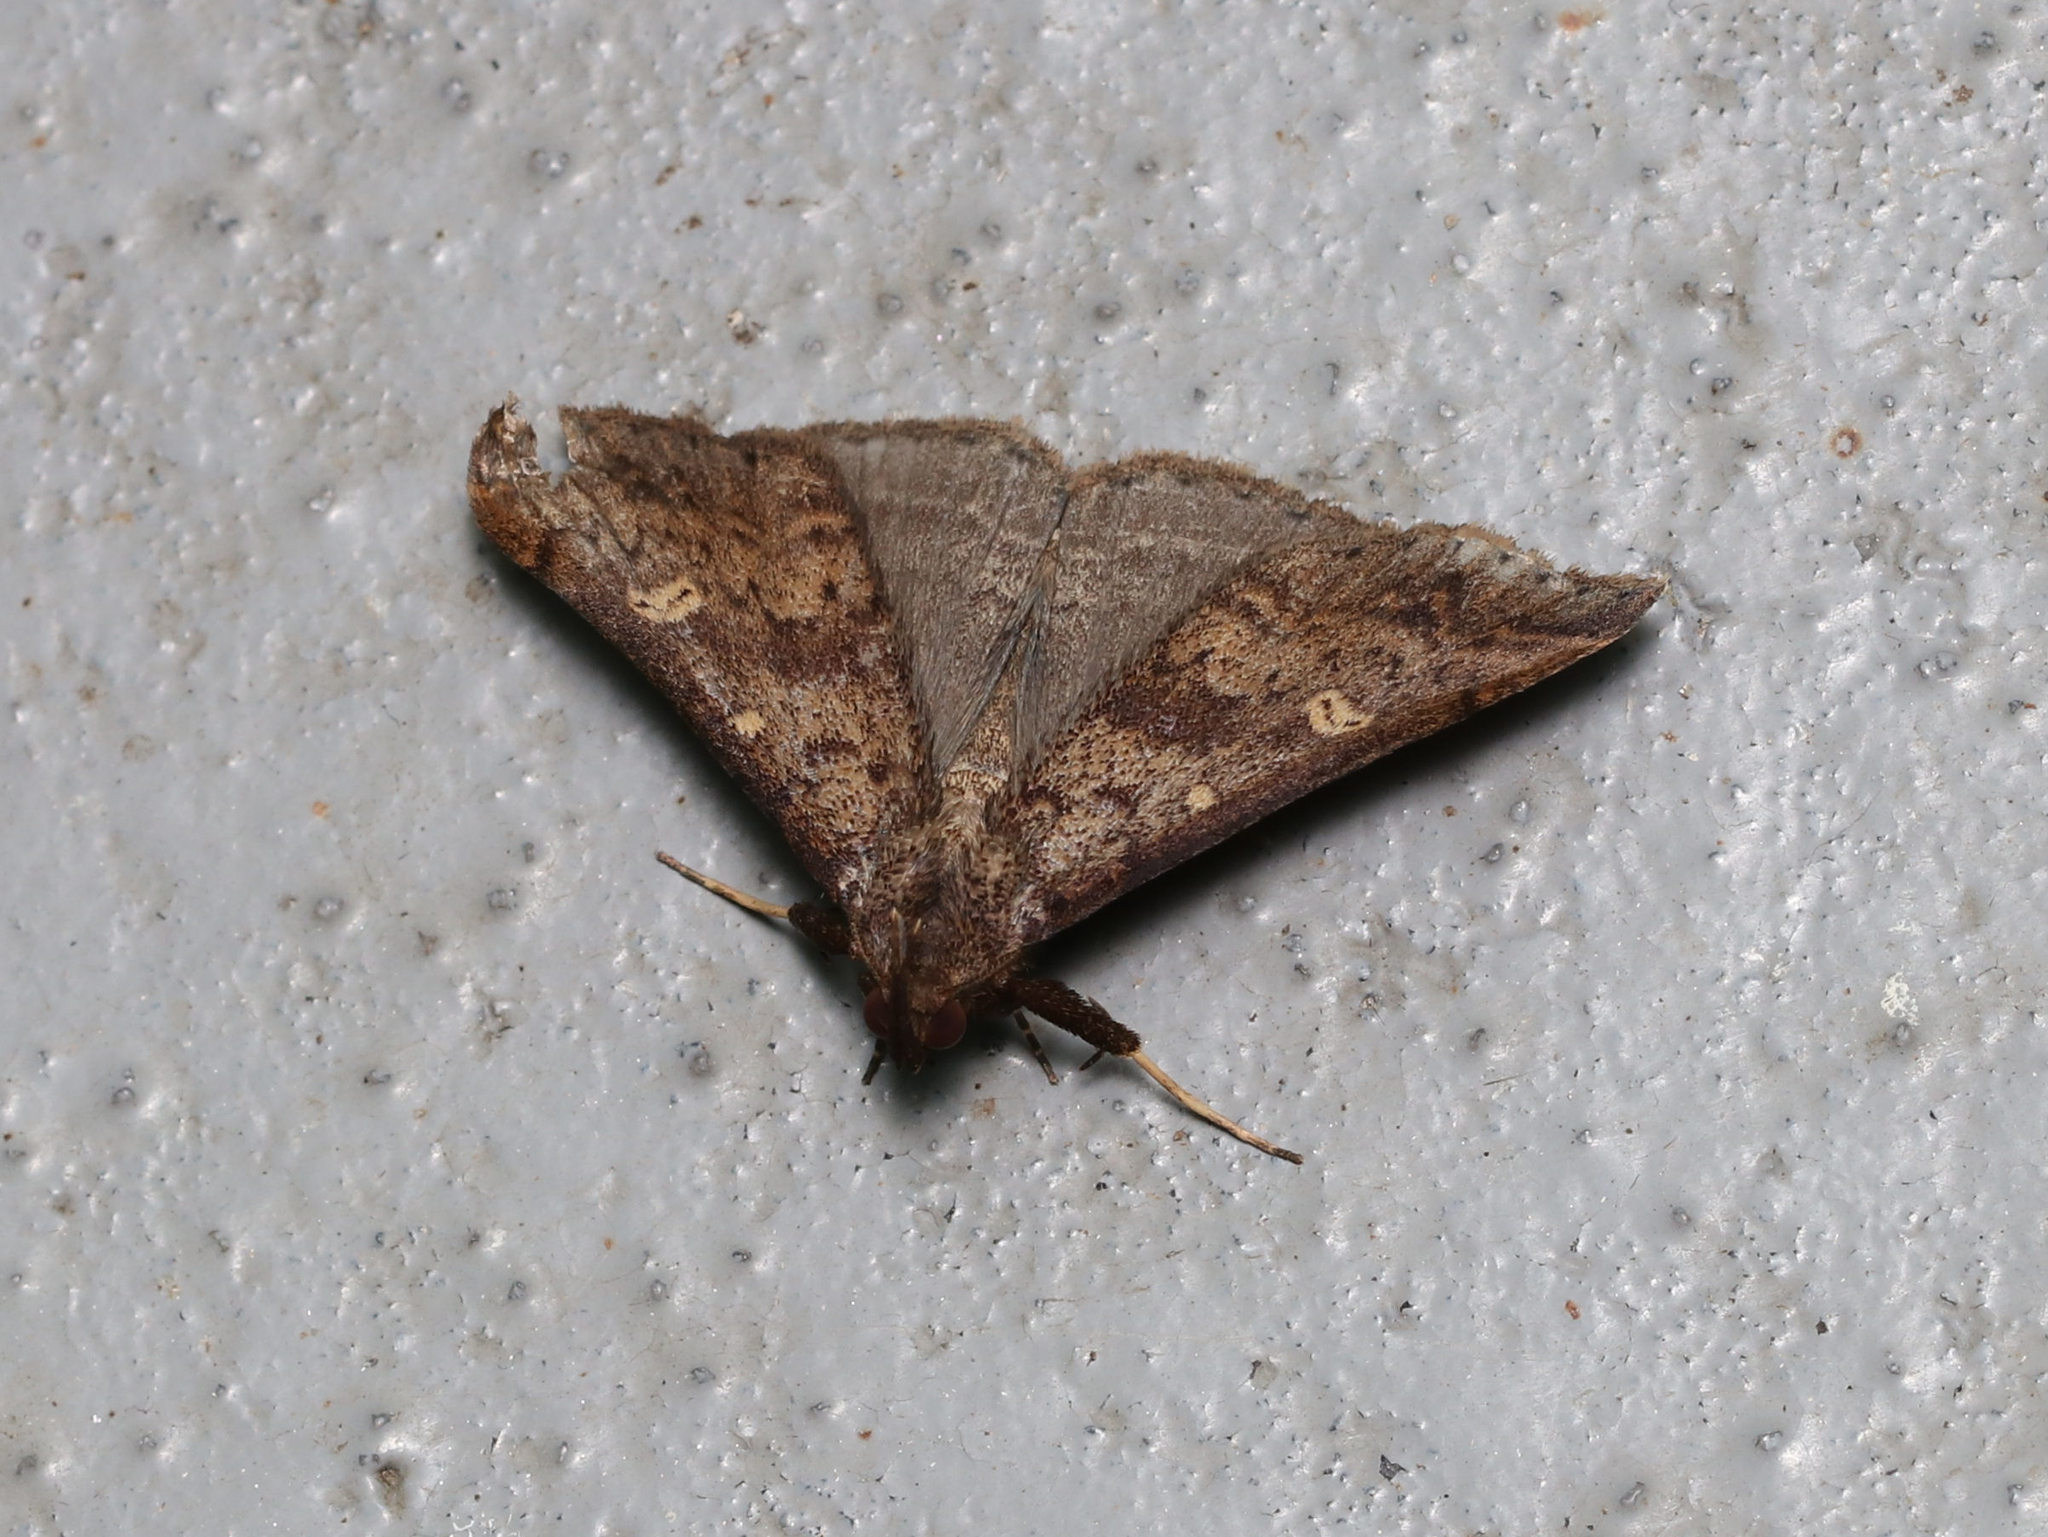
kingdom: Animalia
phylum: Arthropoda
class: Insecta
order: Lepidoptera
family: Erebidae
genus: Renia
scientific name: Renia discoloralis
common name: Discolored renia moth
